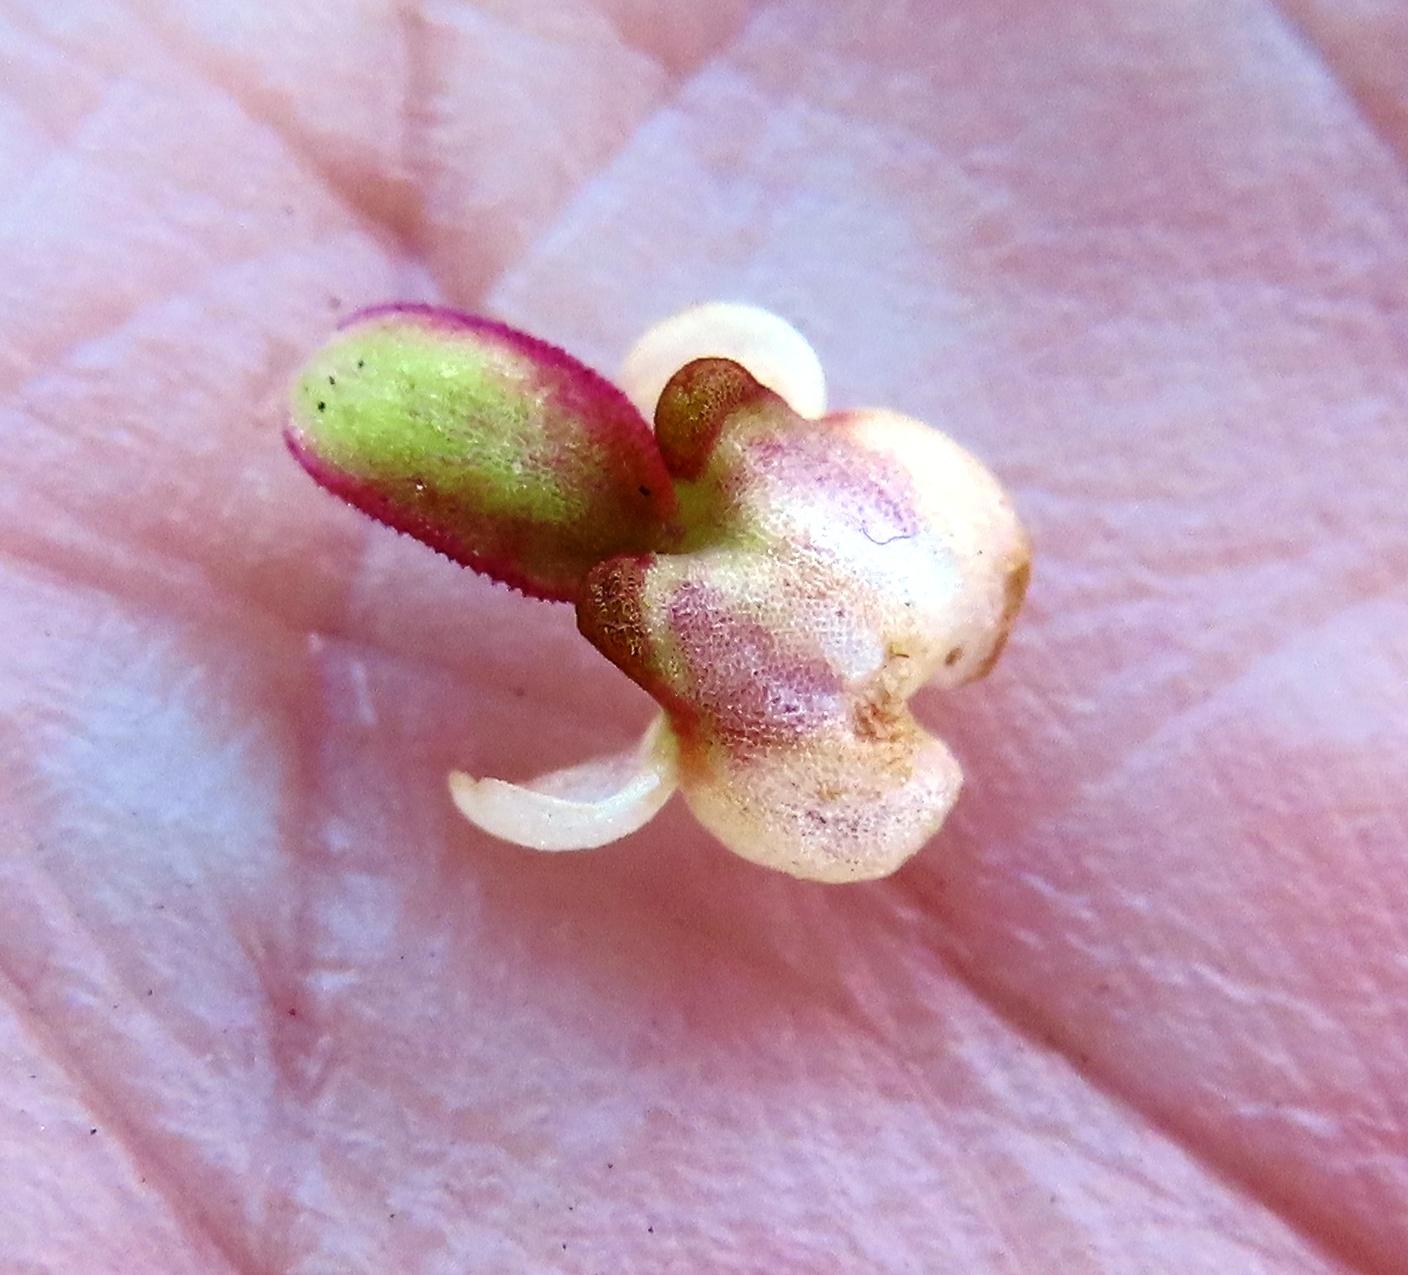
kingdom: Plantae
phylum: Tracheophyta
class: Liliopsida
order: Asparagales
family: Orchidaceae
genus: Satyrium
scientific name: Satyrium bicallosum
